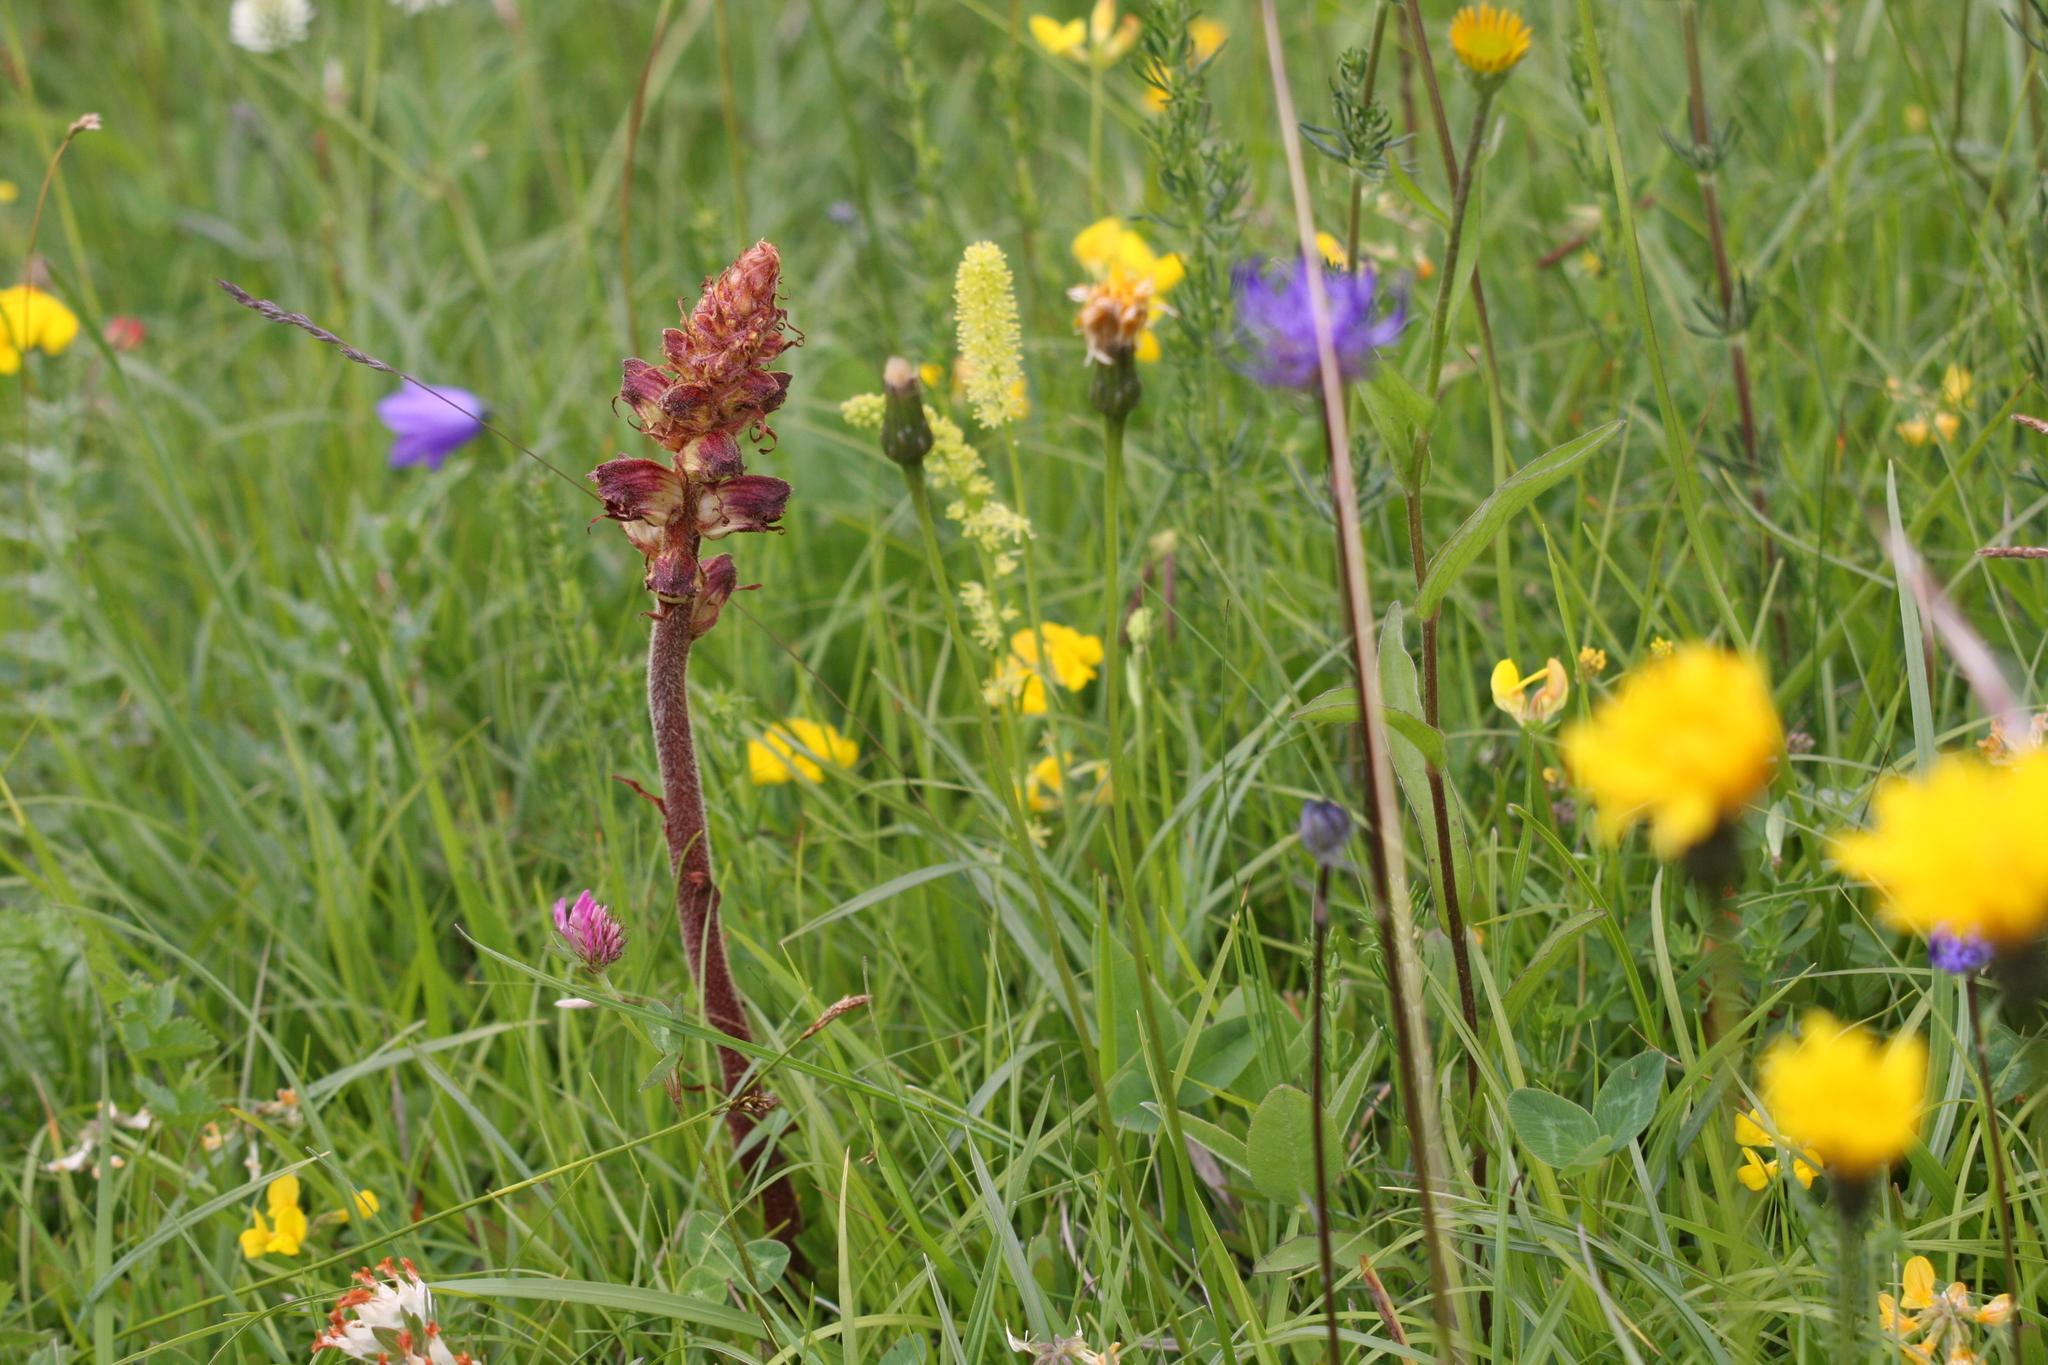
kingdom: Plantae
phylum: Tracheophyta
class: Magnoliopsida
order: Lamiales
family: Orobanchaceae
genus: Orobanche
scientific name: Orobanche gracilis
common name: Slender broomrape
